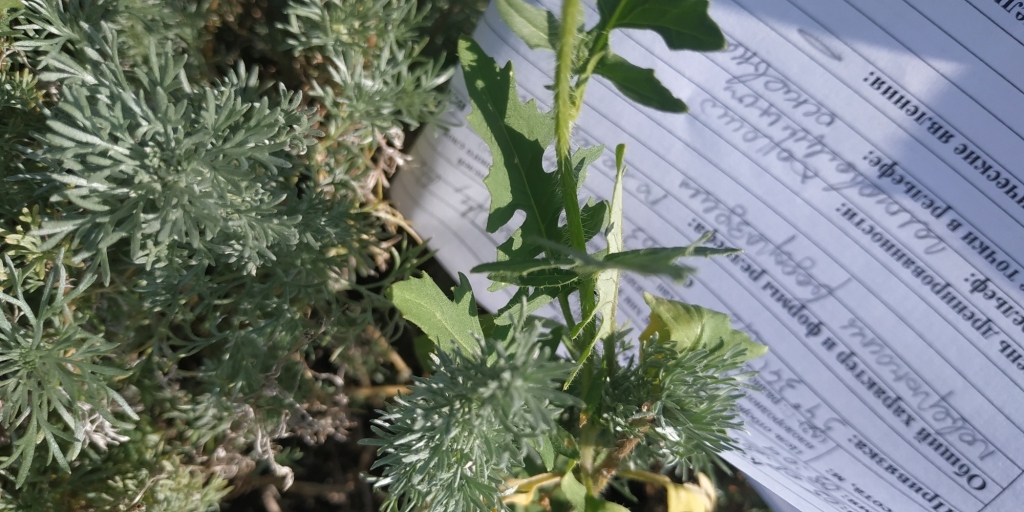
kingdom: Plantae
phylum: Tracheophyta
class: Magnoliopsida
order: Brassicales
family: Brassicaceae
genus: Sisymbrium
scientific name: Sisymbrium loeselii
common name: False london-rocket
